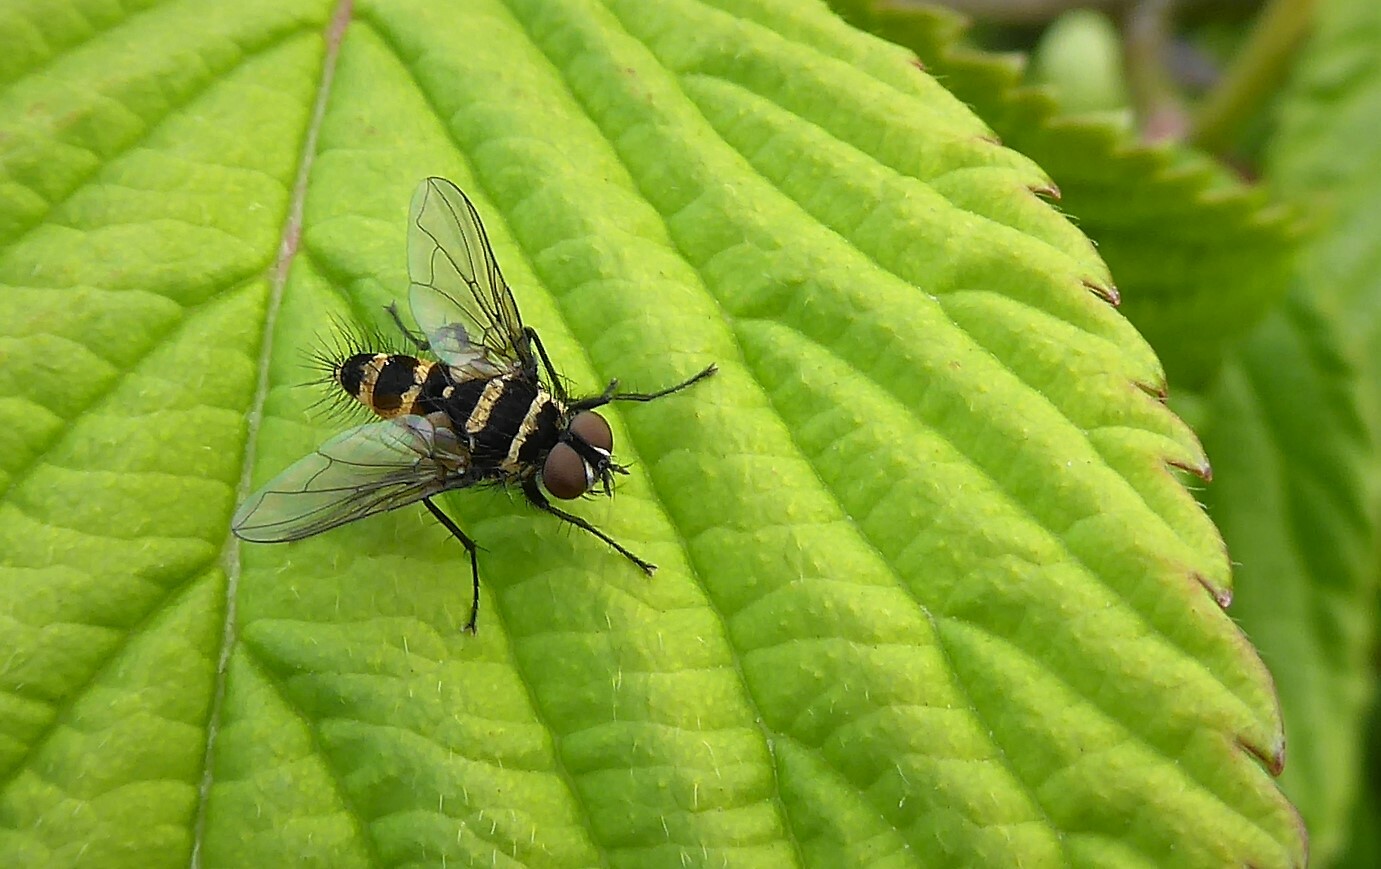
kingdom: Animalia
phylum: Arthropoda
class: Insecta
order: Diptera
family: Tachinidae
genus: Trigonospila
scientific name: Trigonospila brevifacies
